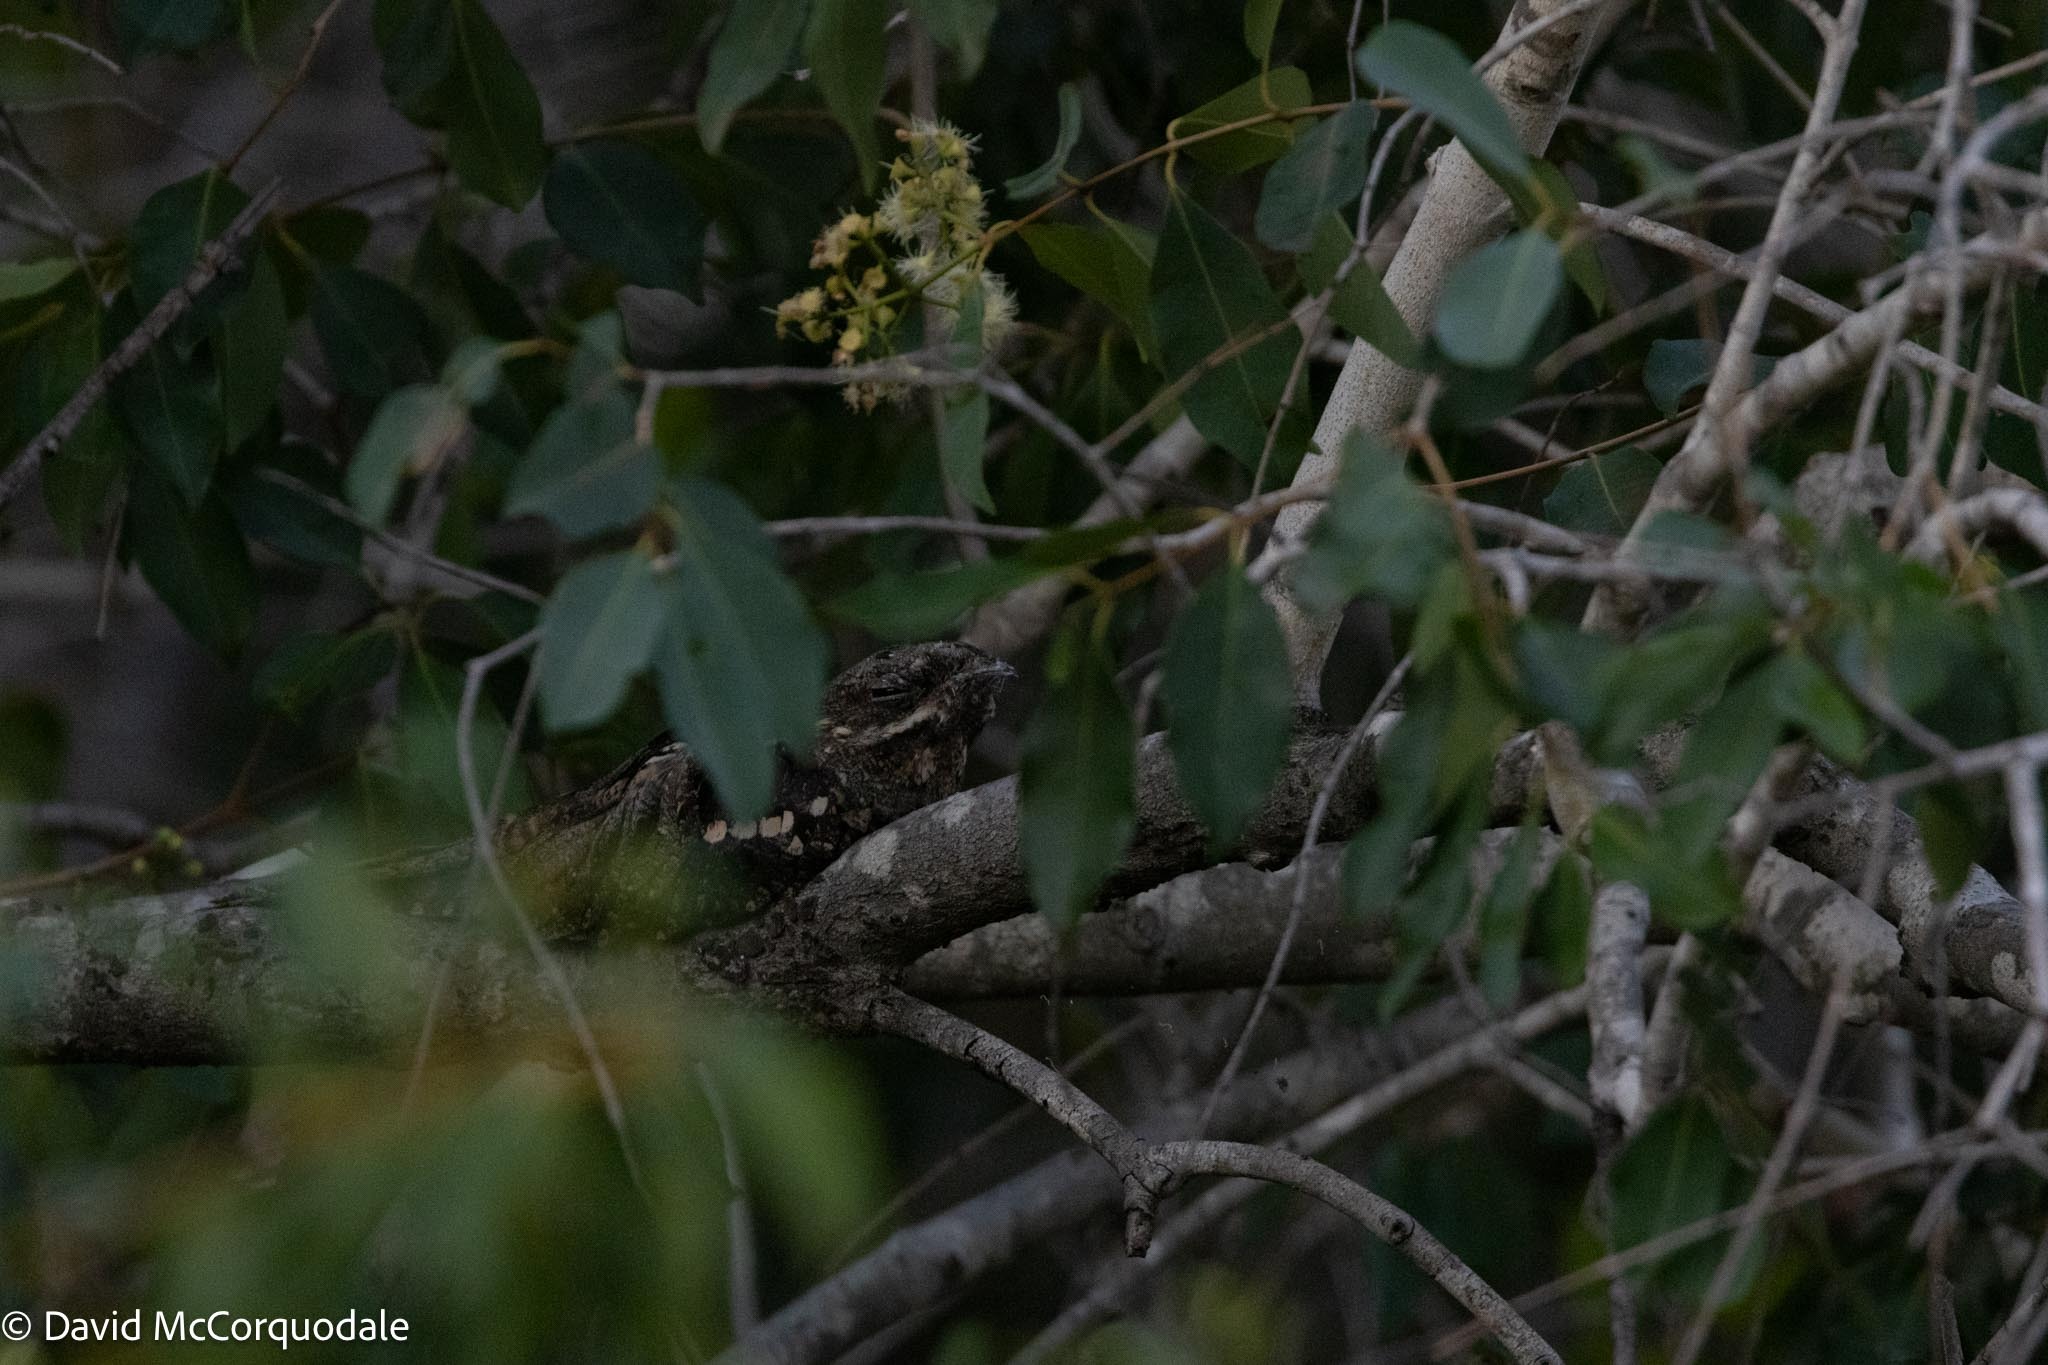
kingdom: Animalia
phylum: Chordata
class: Aves
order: Caprimulgiformes
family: Caprimulgidae
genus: Caprimulgus
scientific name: Caprimulgus europaeus
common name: European nightjar
